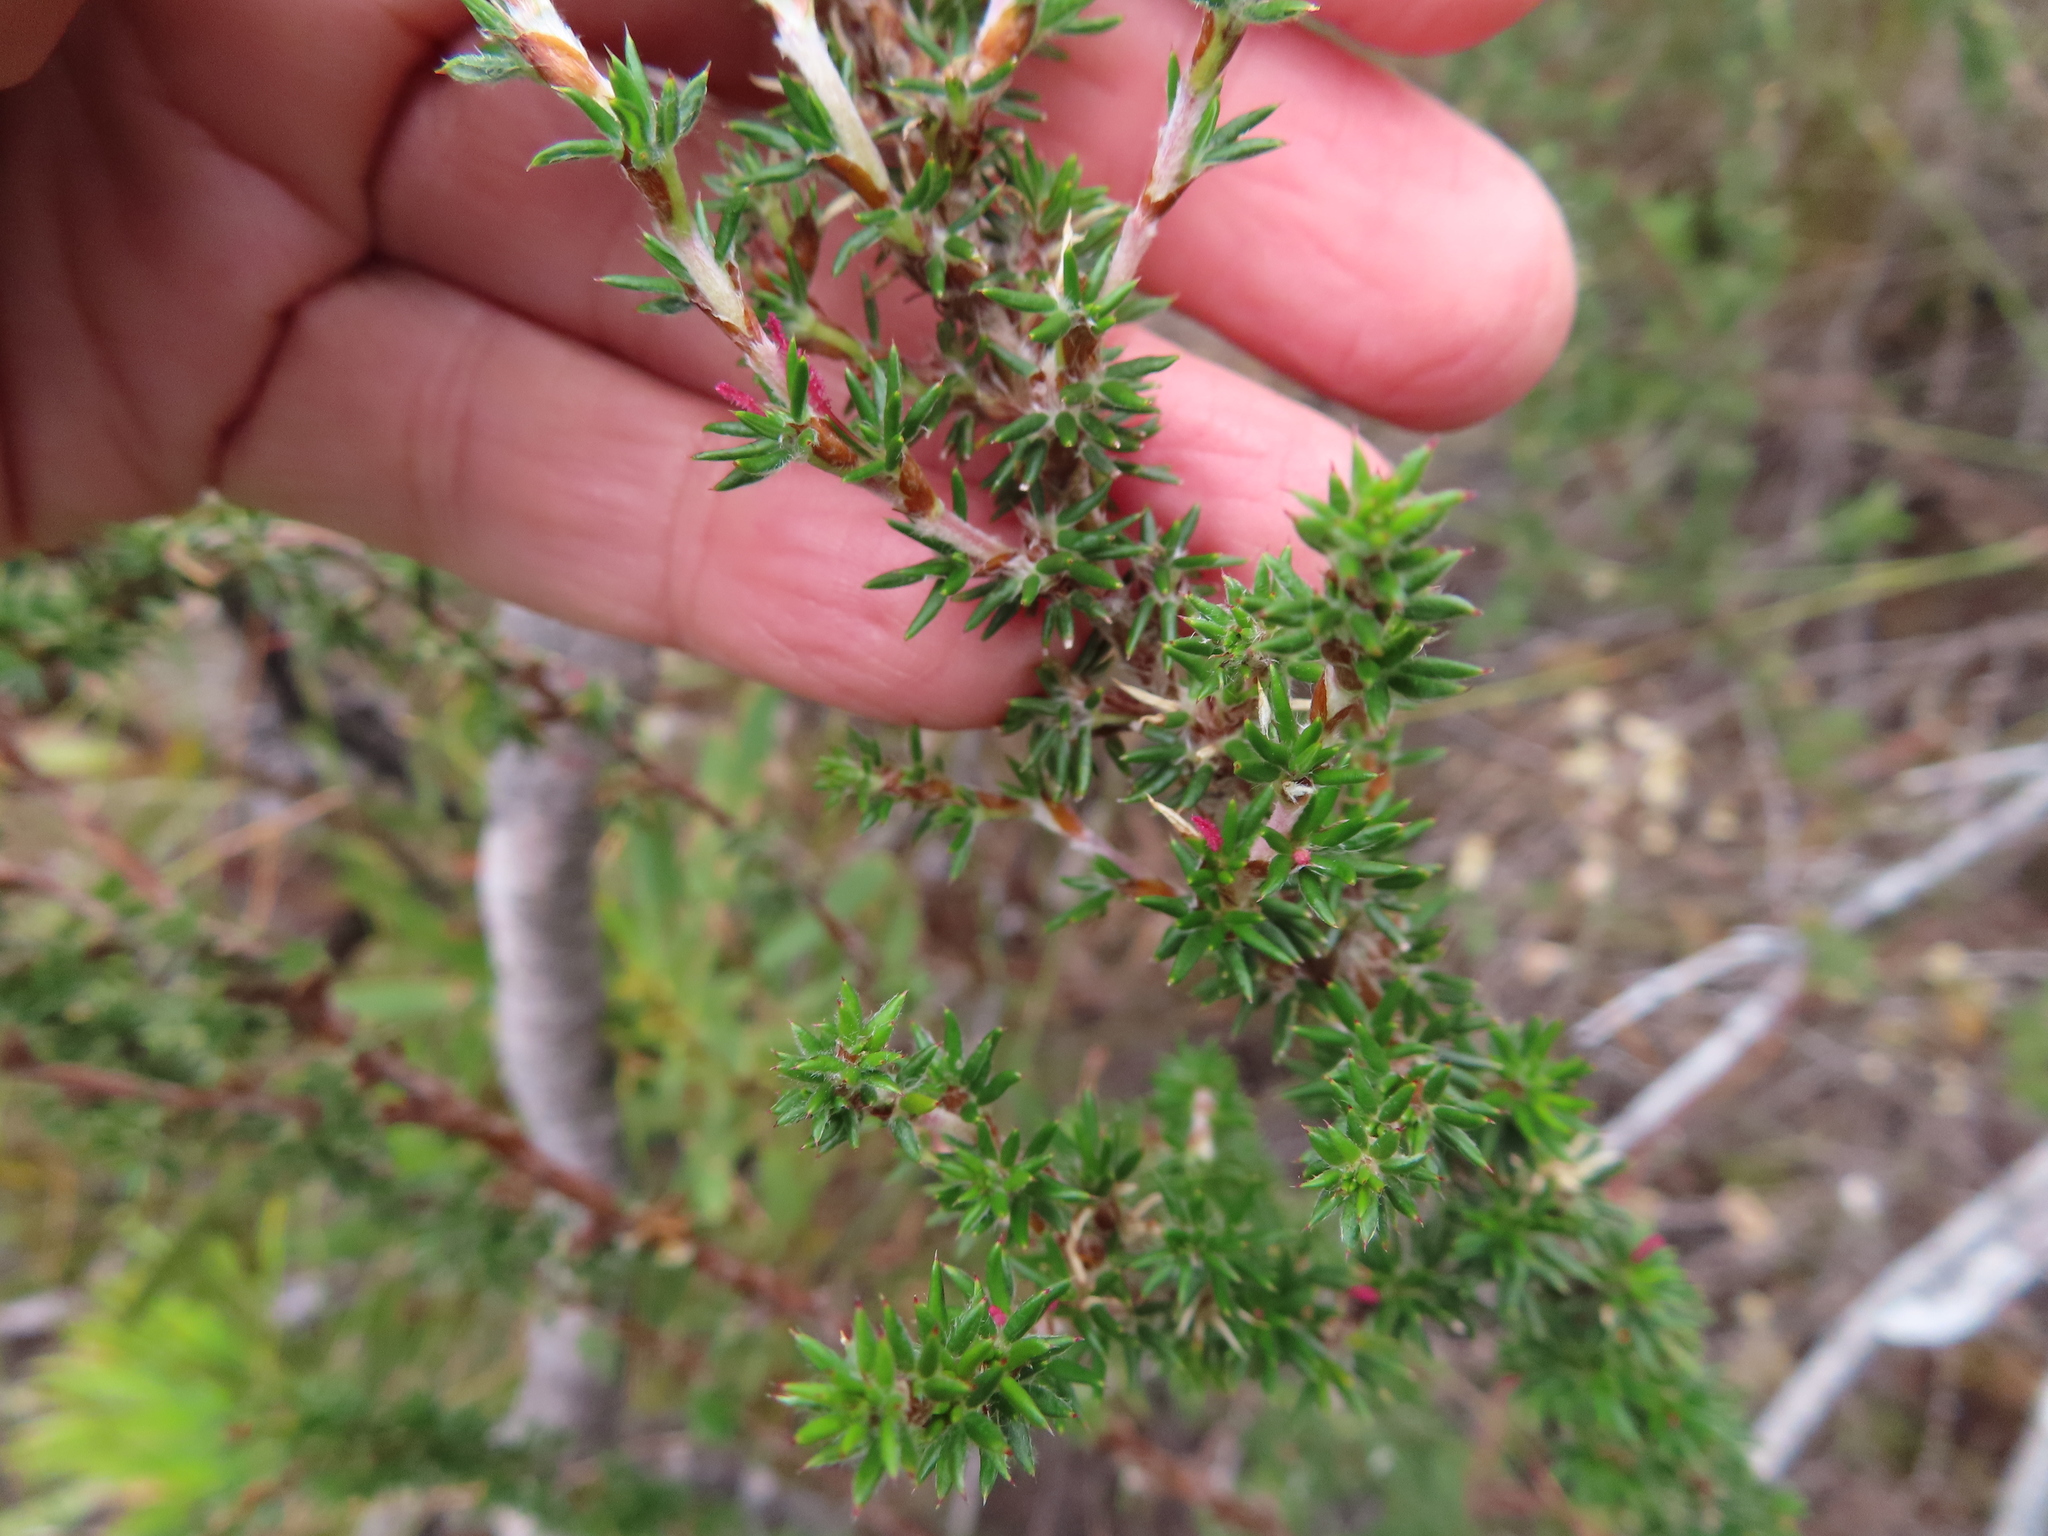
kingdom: Plantae
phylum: Tracheophyta
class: Magnoliopsida
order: Rosales
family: Rosaceae
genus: Cliffortia
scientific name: Cliffortia stricta
